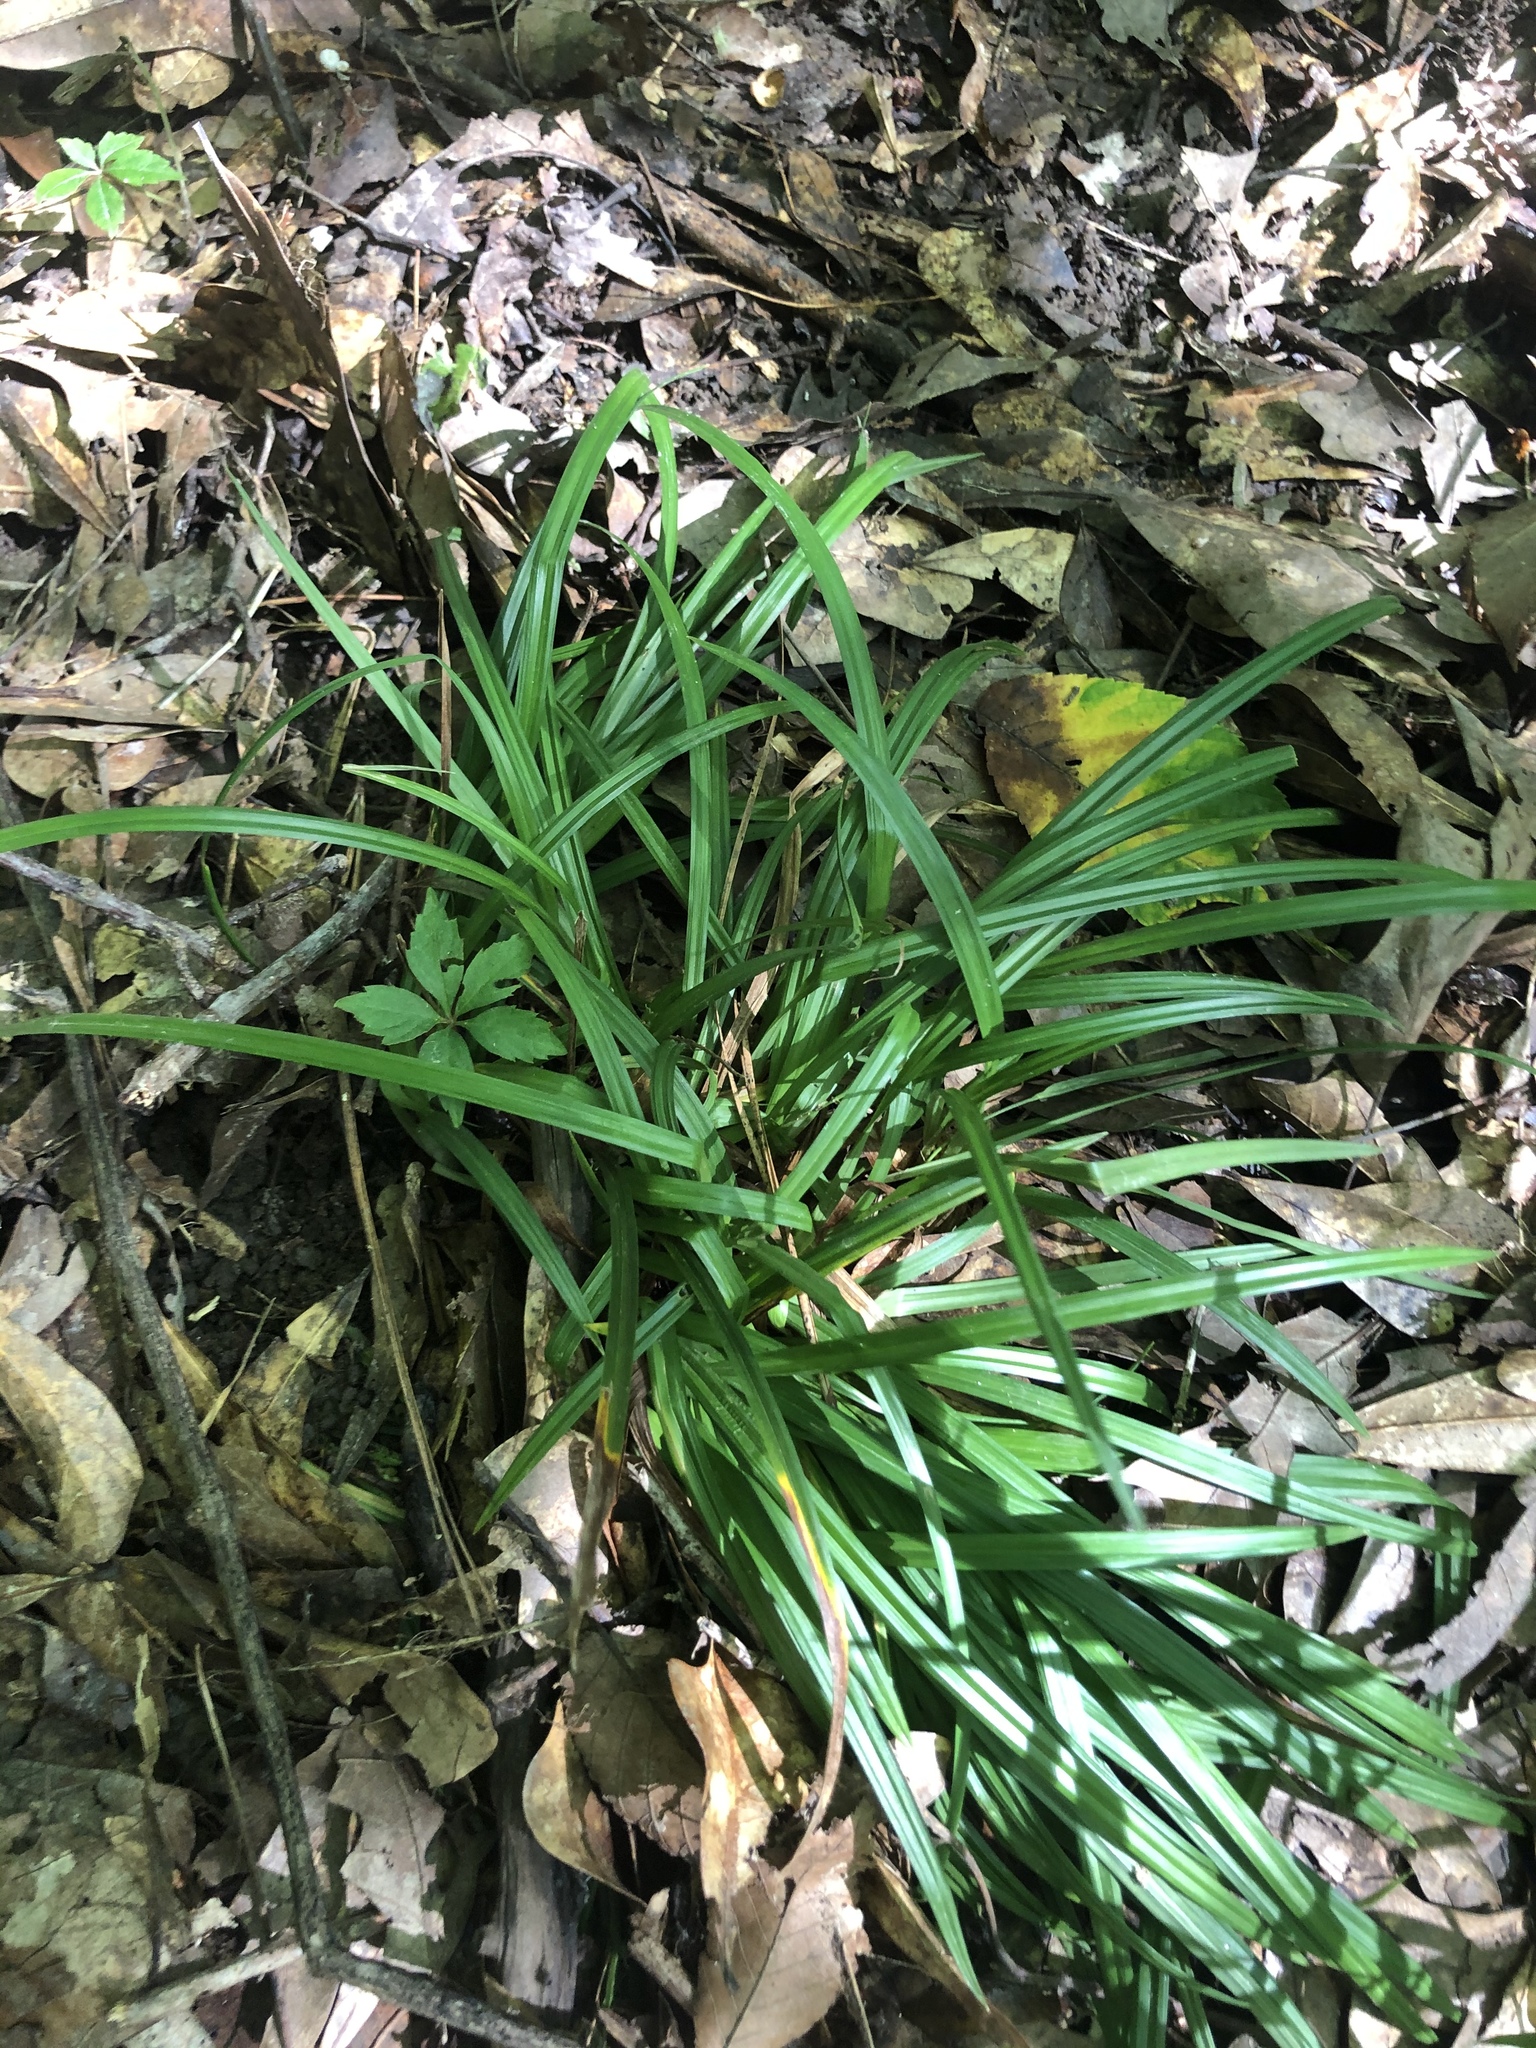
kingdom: Plantae
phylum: Tracheophyta
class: Liliopsida
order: Poales
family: Cyperaceae
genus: Carex
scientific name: Carex abscondita
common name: Thicket sedge
